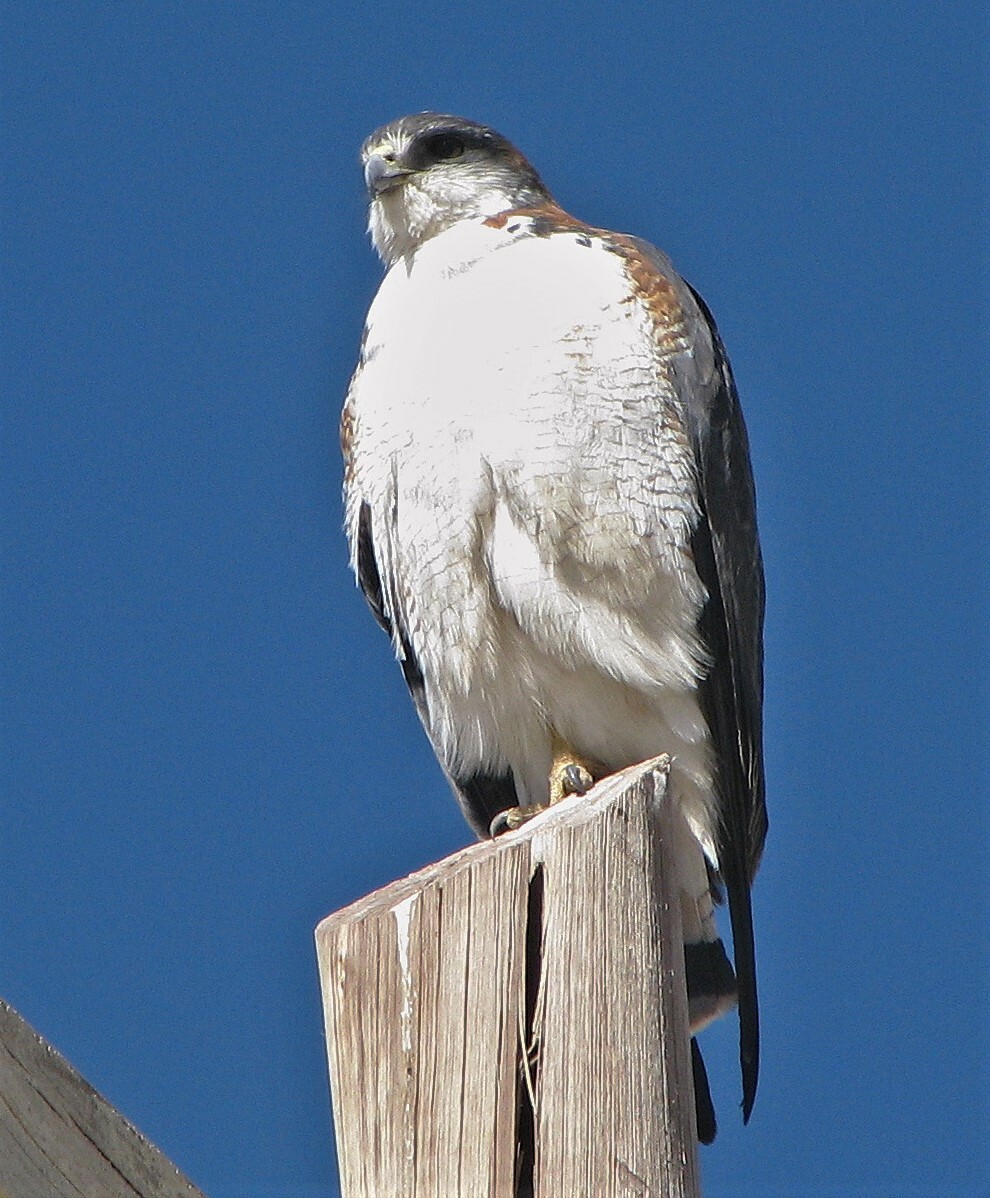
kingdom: Animalia
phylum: Chordata
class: Aves
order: Accipitriformes
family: Accipitridae
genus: Buteo
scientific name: Buteo polyosoma
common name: Variable hawk
